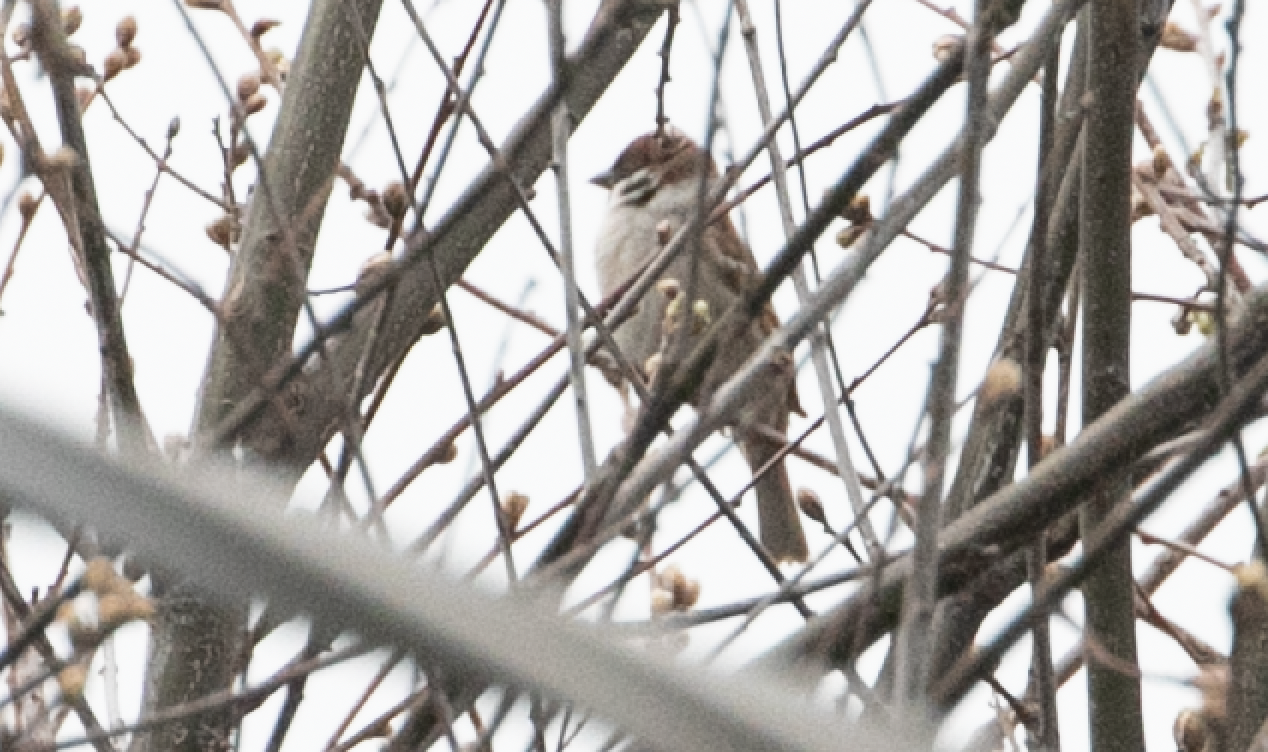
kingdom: Animalia
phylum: Chordata
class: Aves
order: Passeriformes
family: Passeridae
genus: Passer
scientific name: Passer montanus
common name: Eurasian tree sparrow
